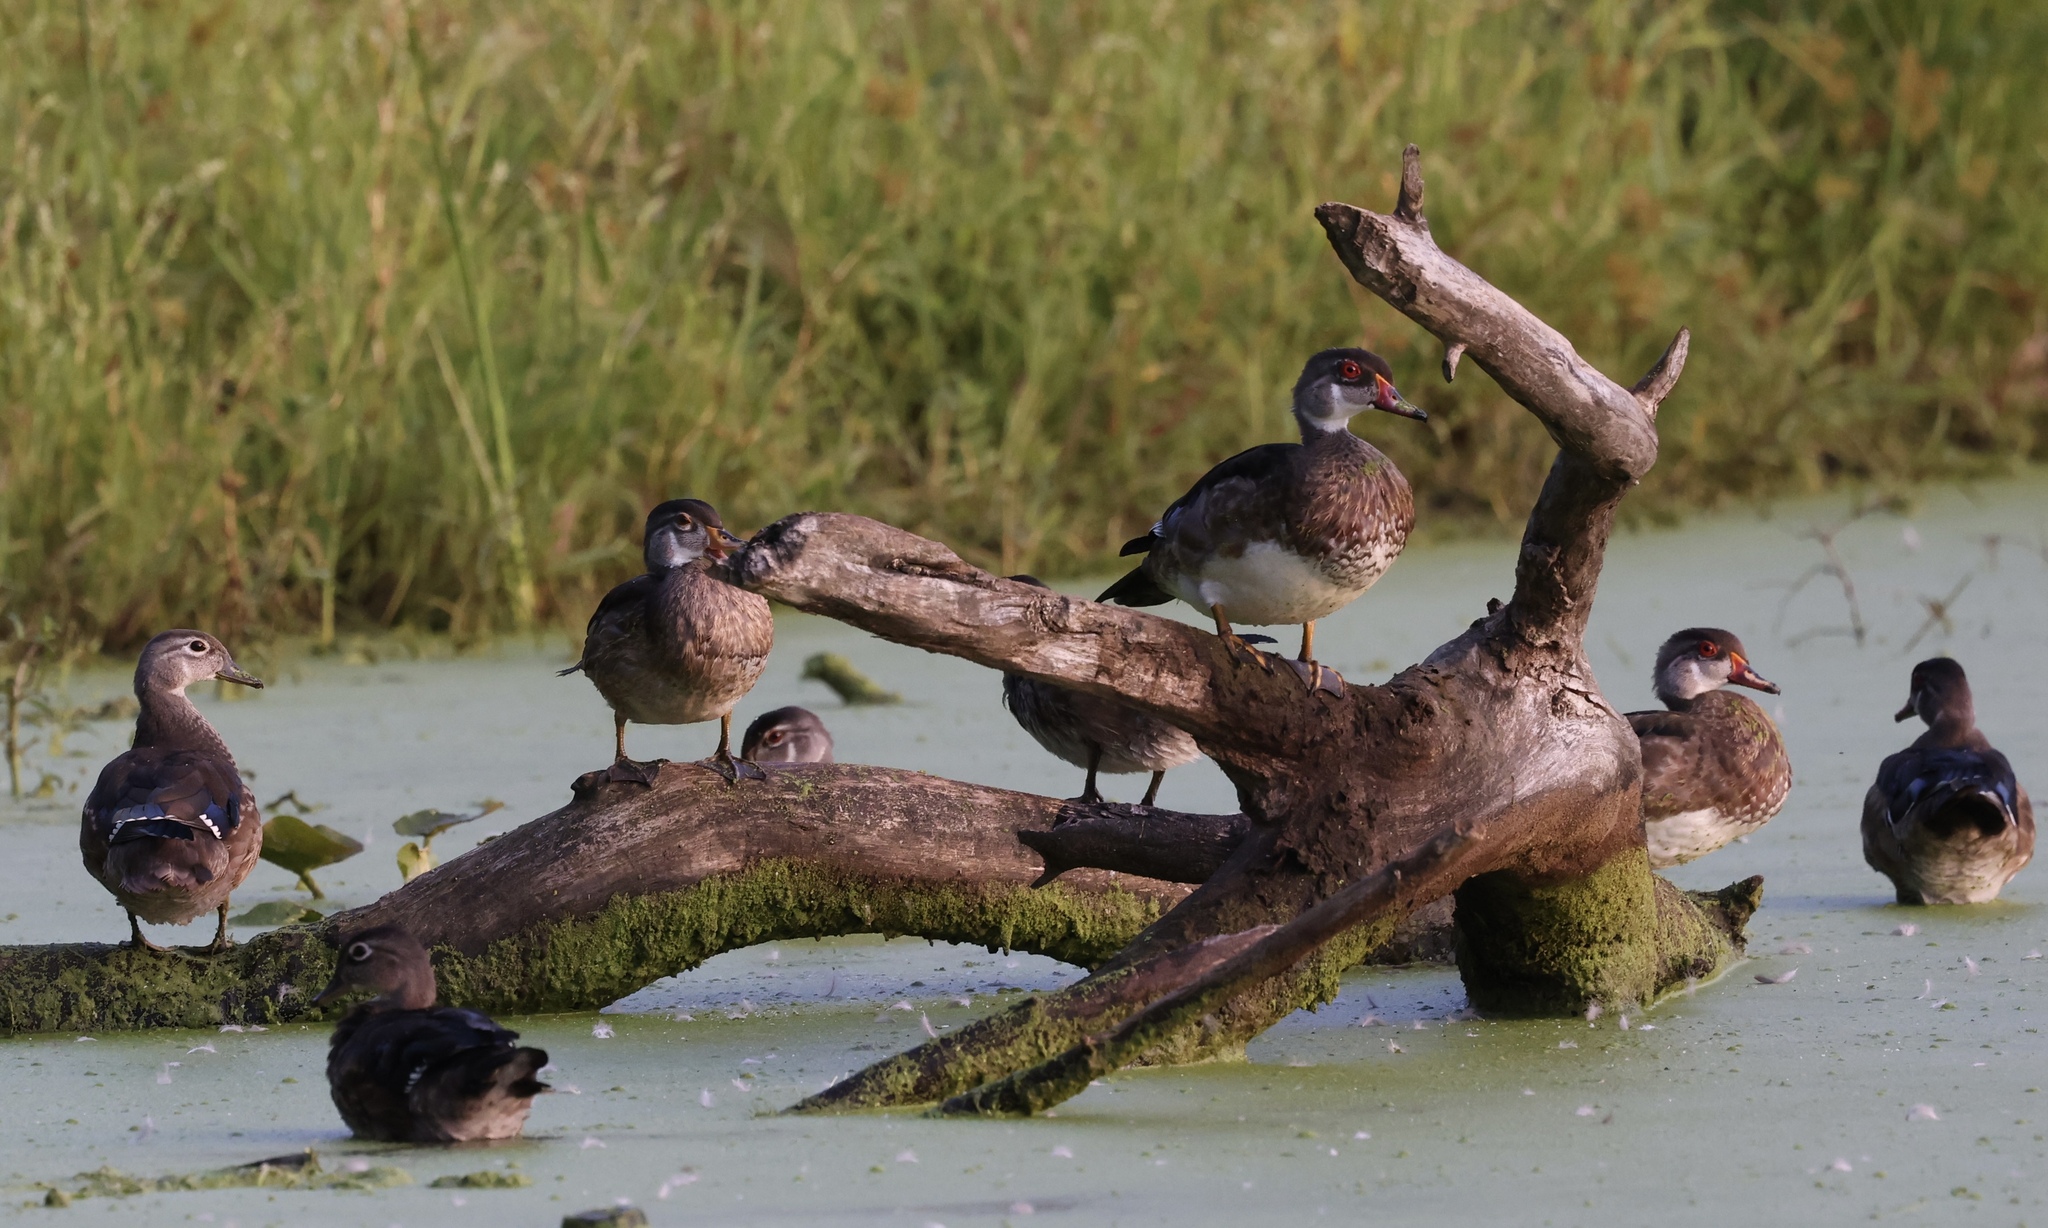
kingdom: Animalia
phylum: Chordata
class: Aves
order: Anseriformes
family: Anatidae
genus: Aix
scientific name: Aix sponsa
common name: Wood duck
